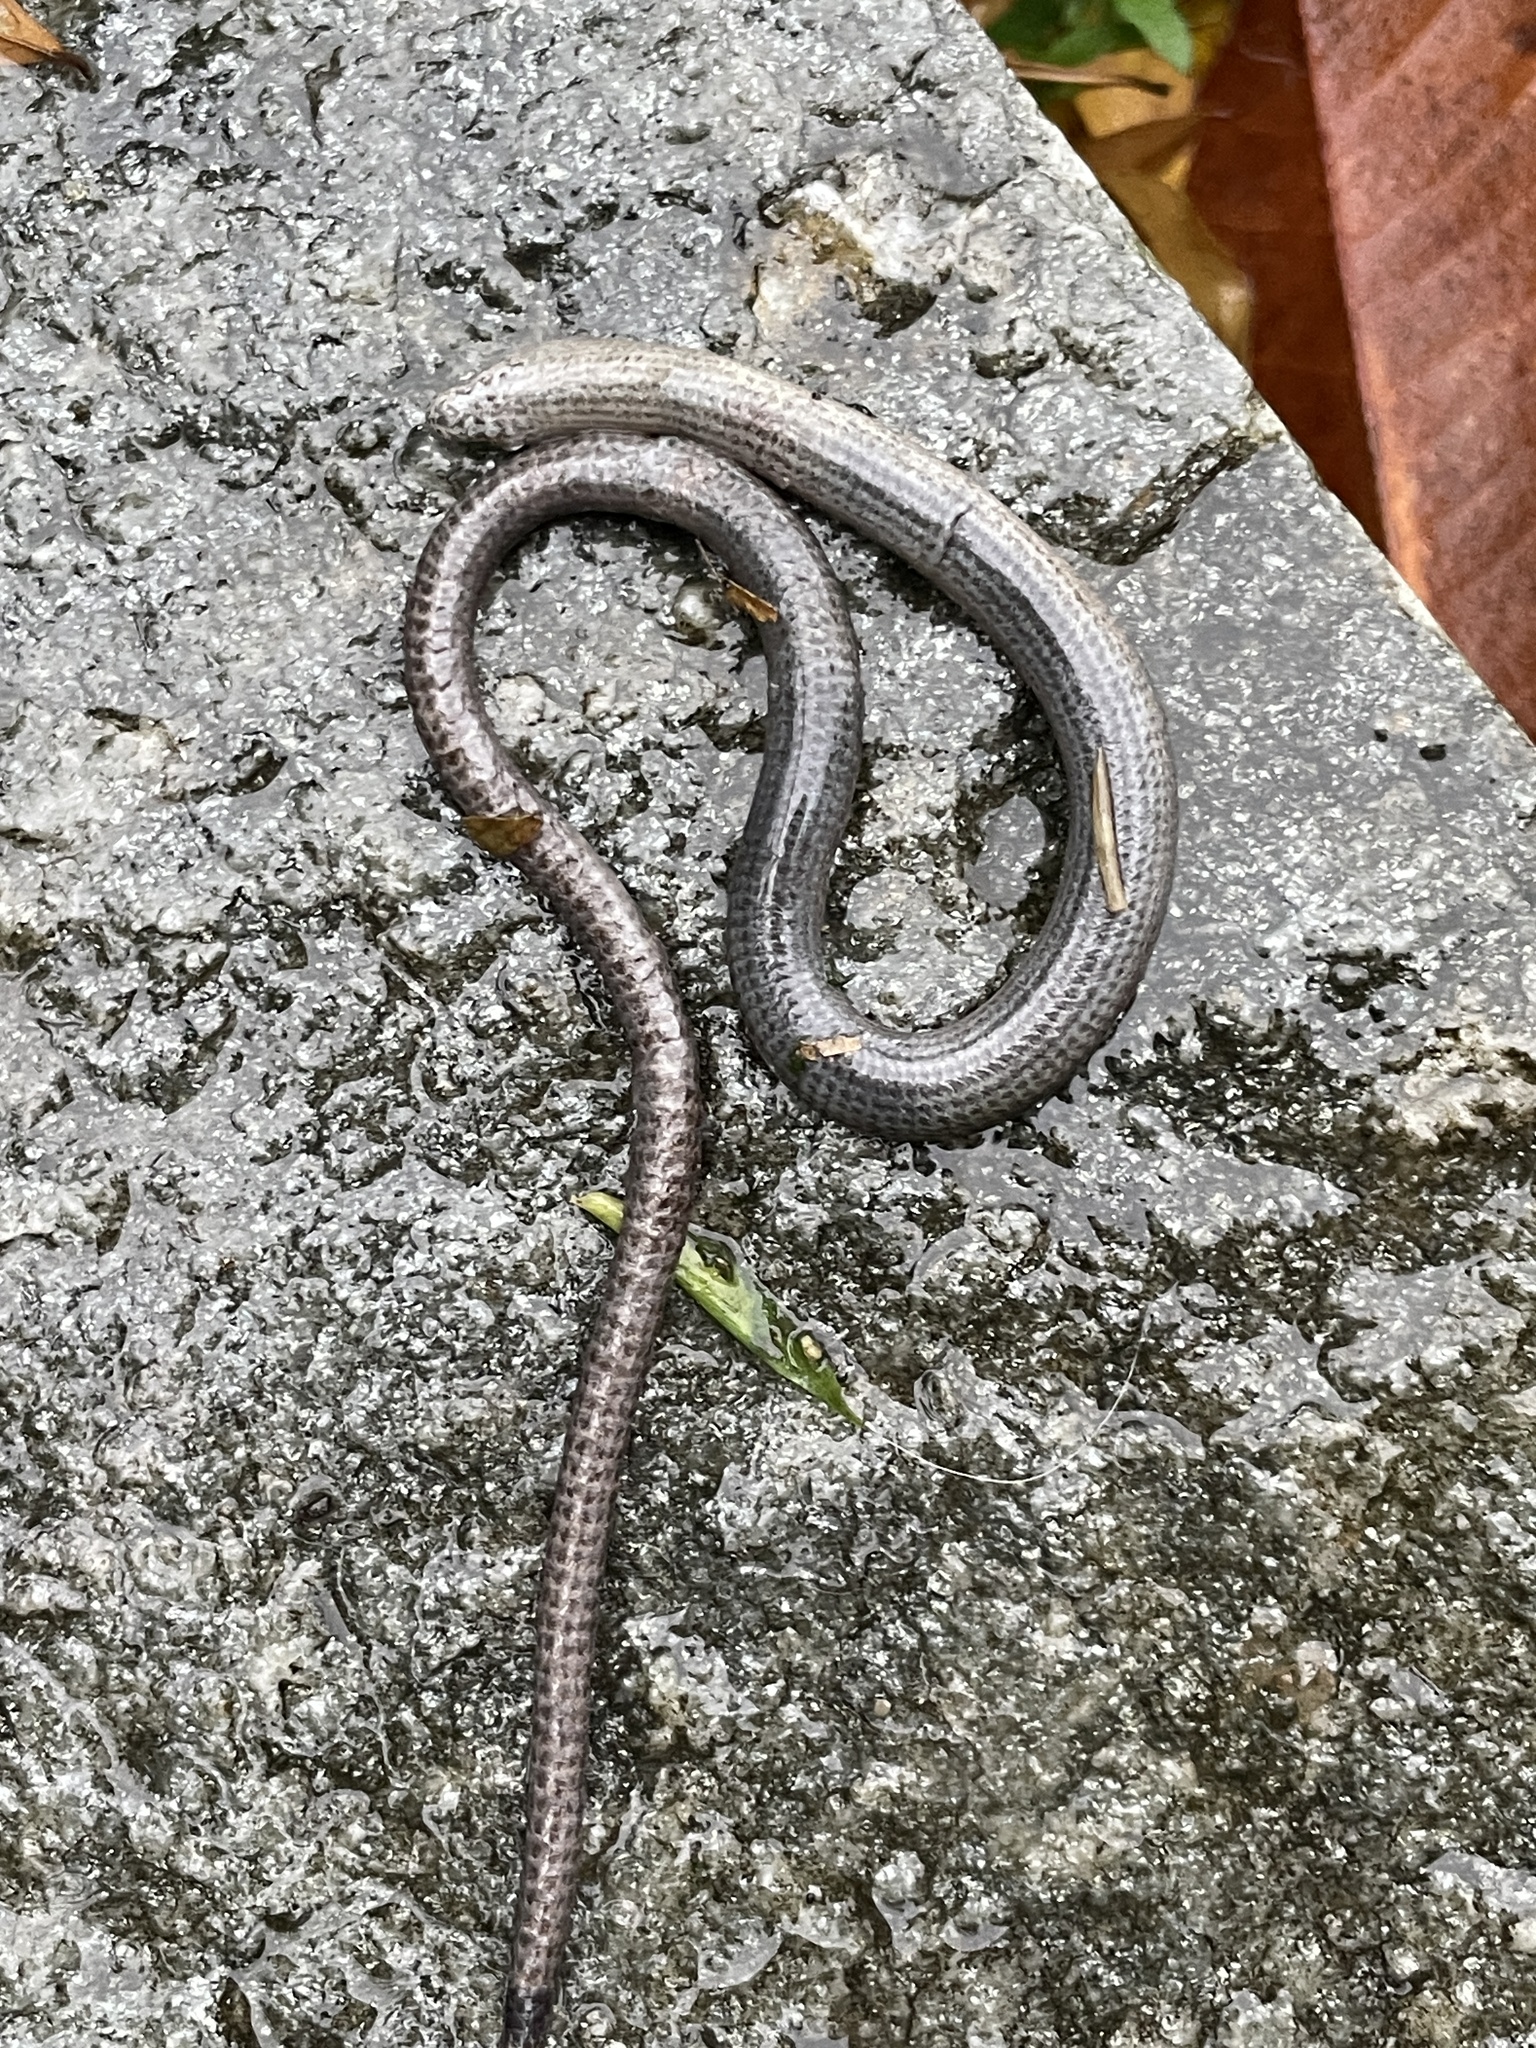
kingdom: Animalia
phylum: Chordata
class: Squamata
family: Anguidae
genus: Anguis
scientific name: Anguis veronensis
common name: Italian slow worm
